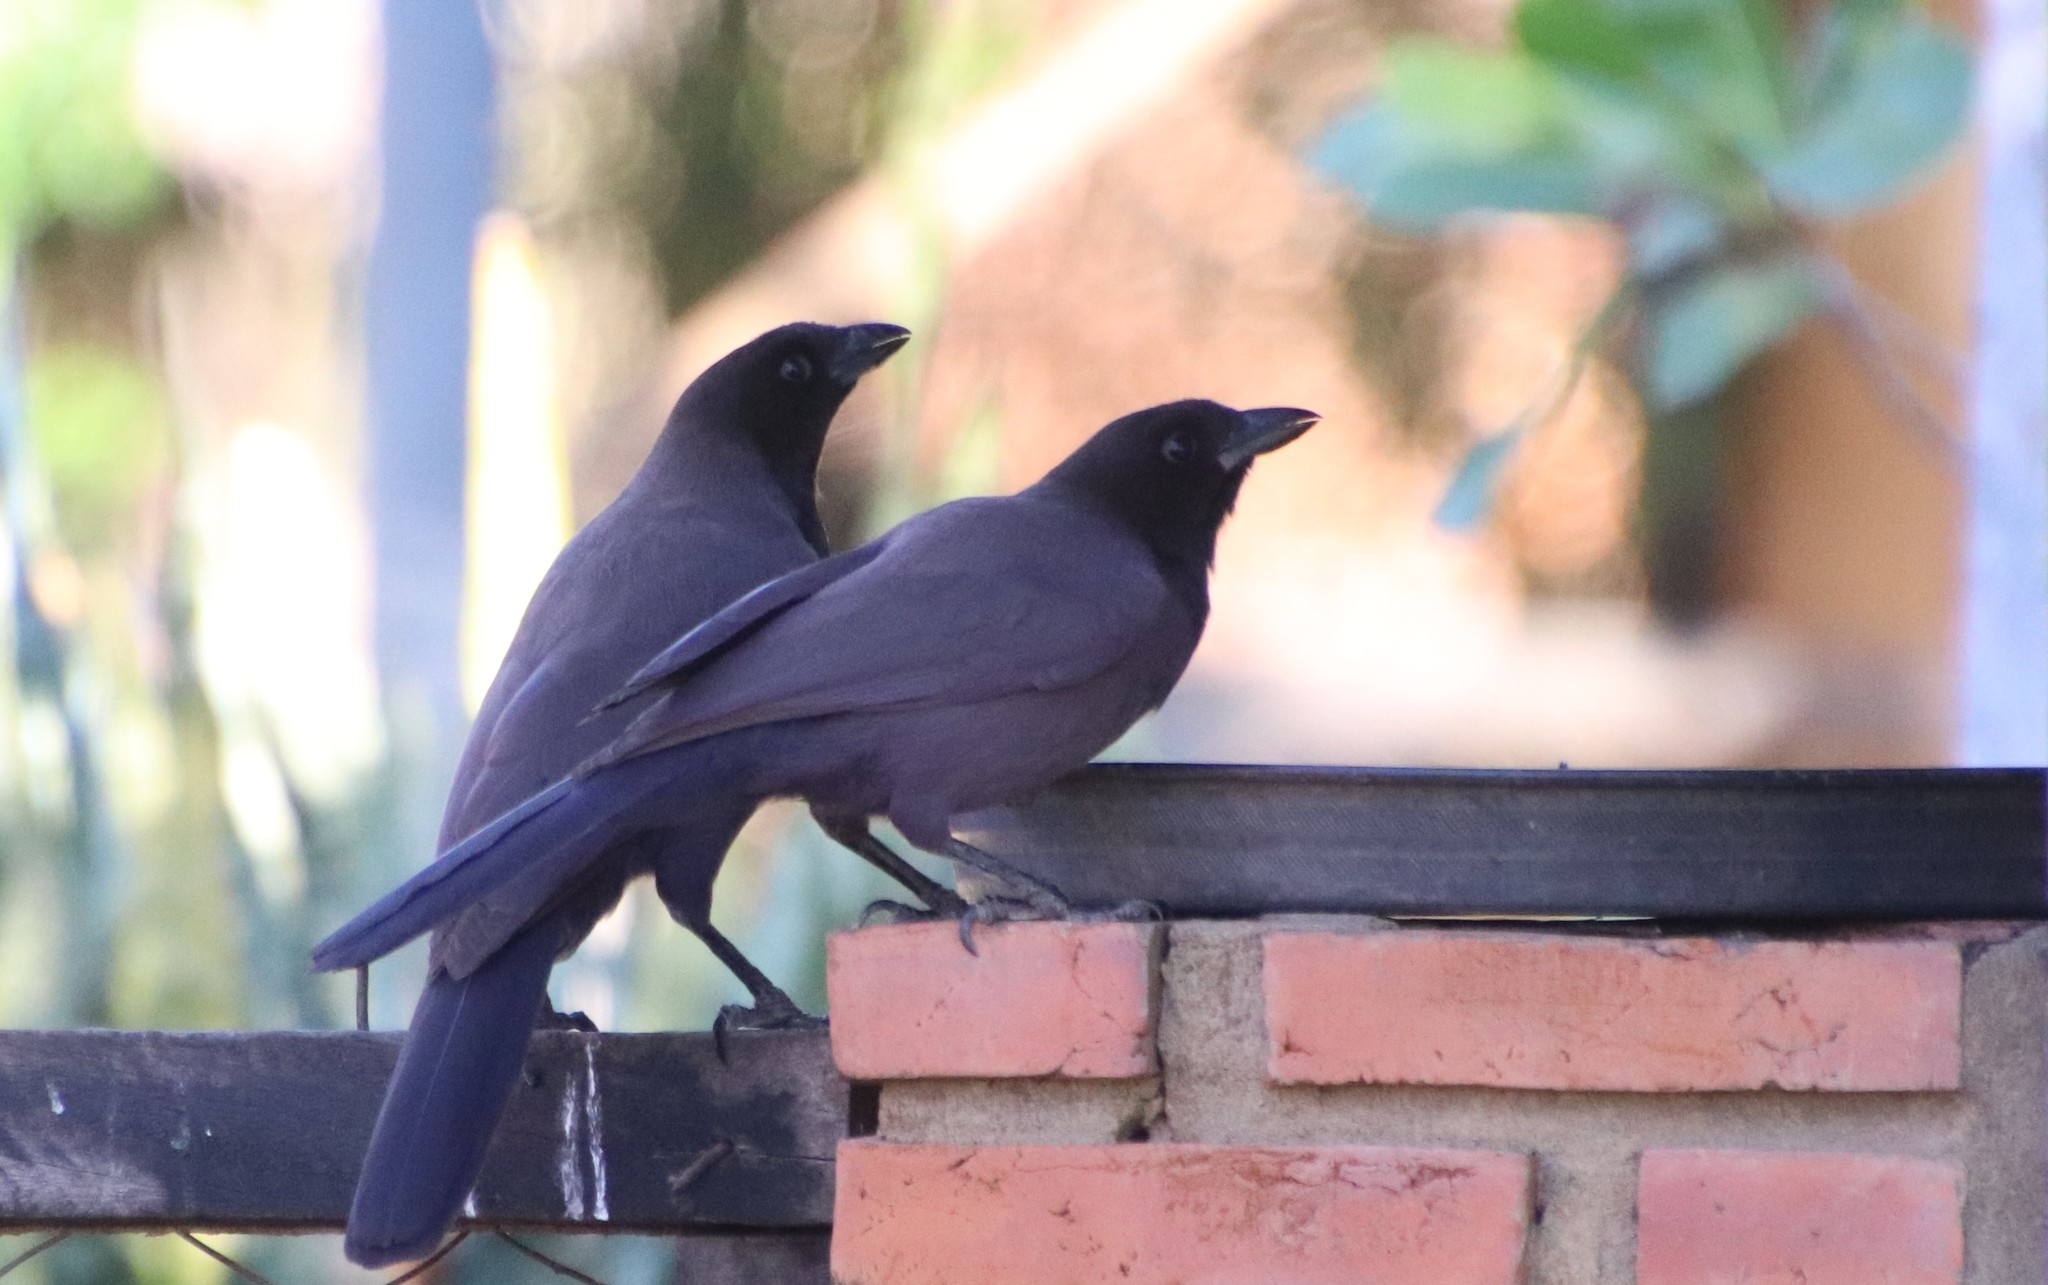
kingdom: Animalia
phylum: Chordata
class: Aves
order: Passeriformes
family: Corvidae
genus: Cyanocorax
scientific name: Cyanocorax cyanomelas
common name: Purplish jay
